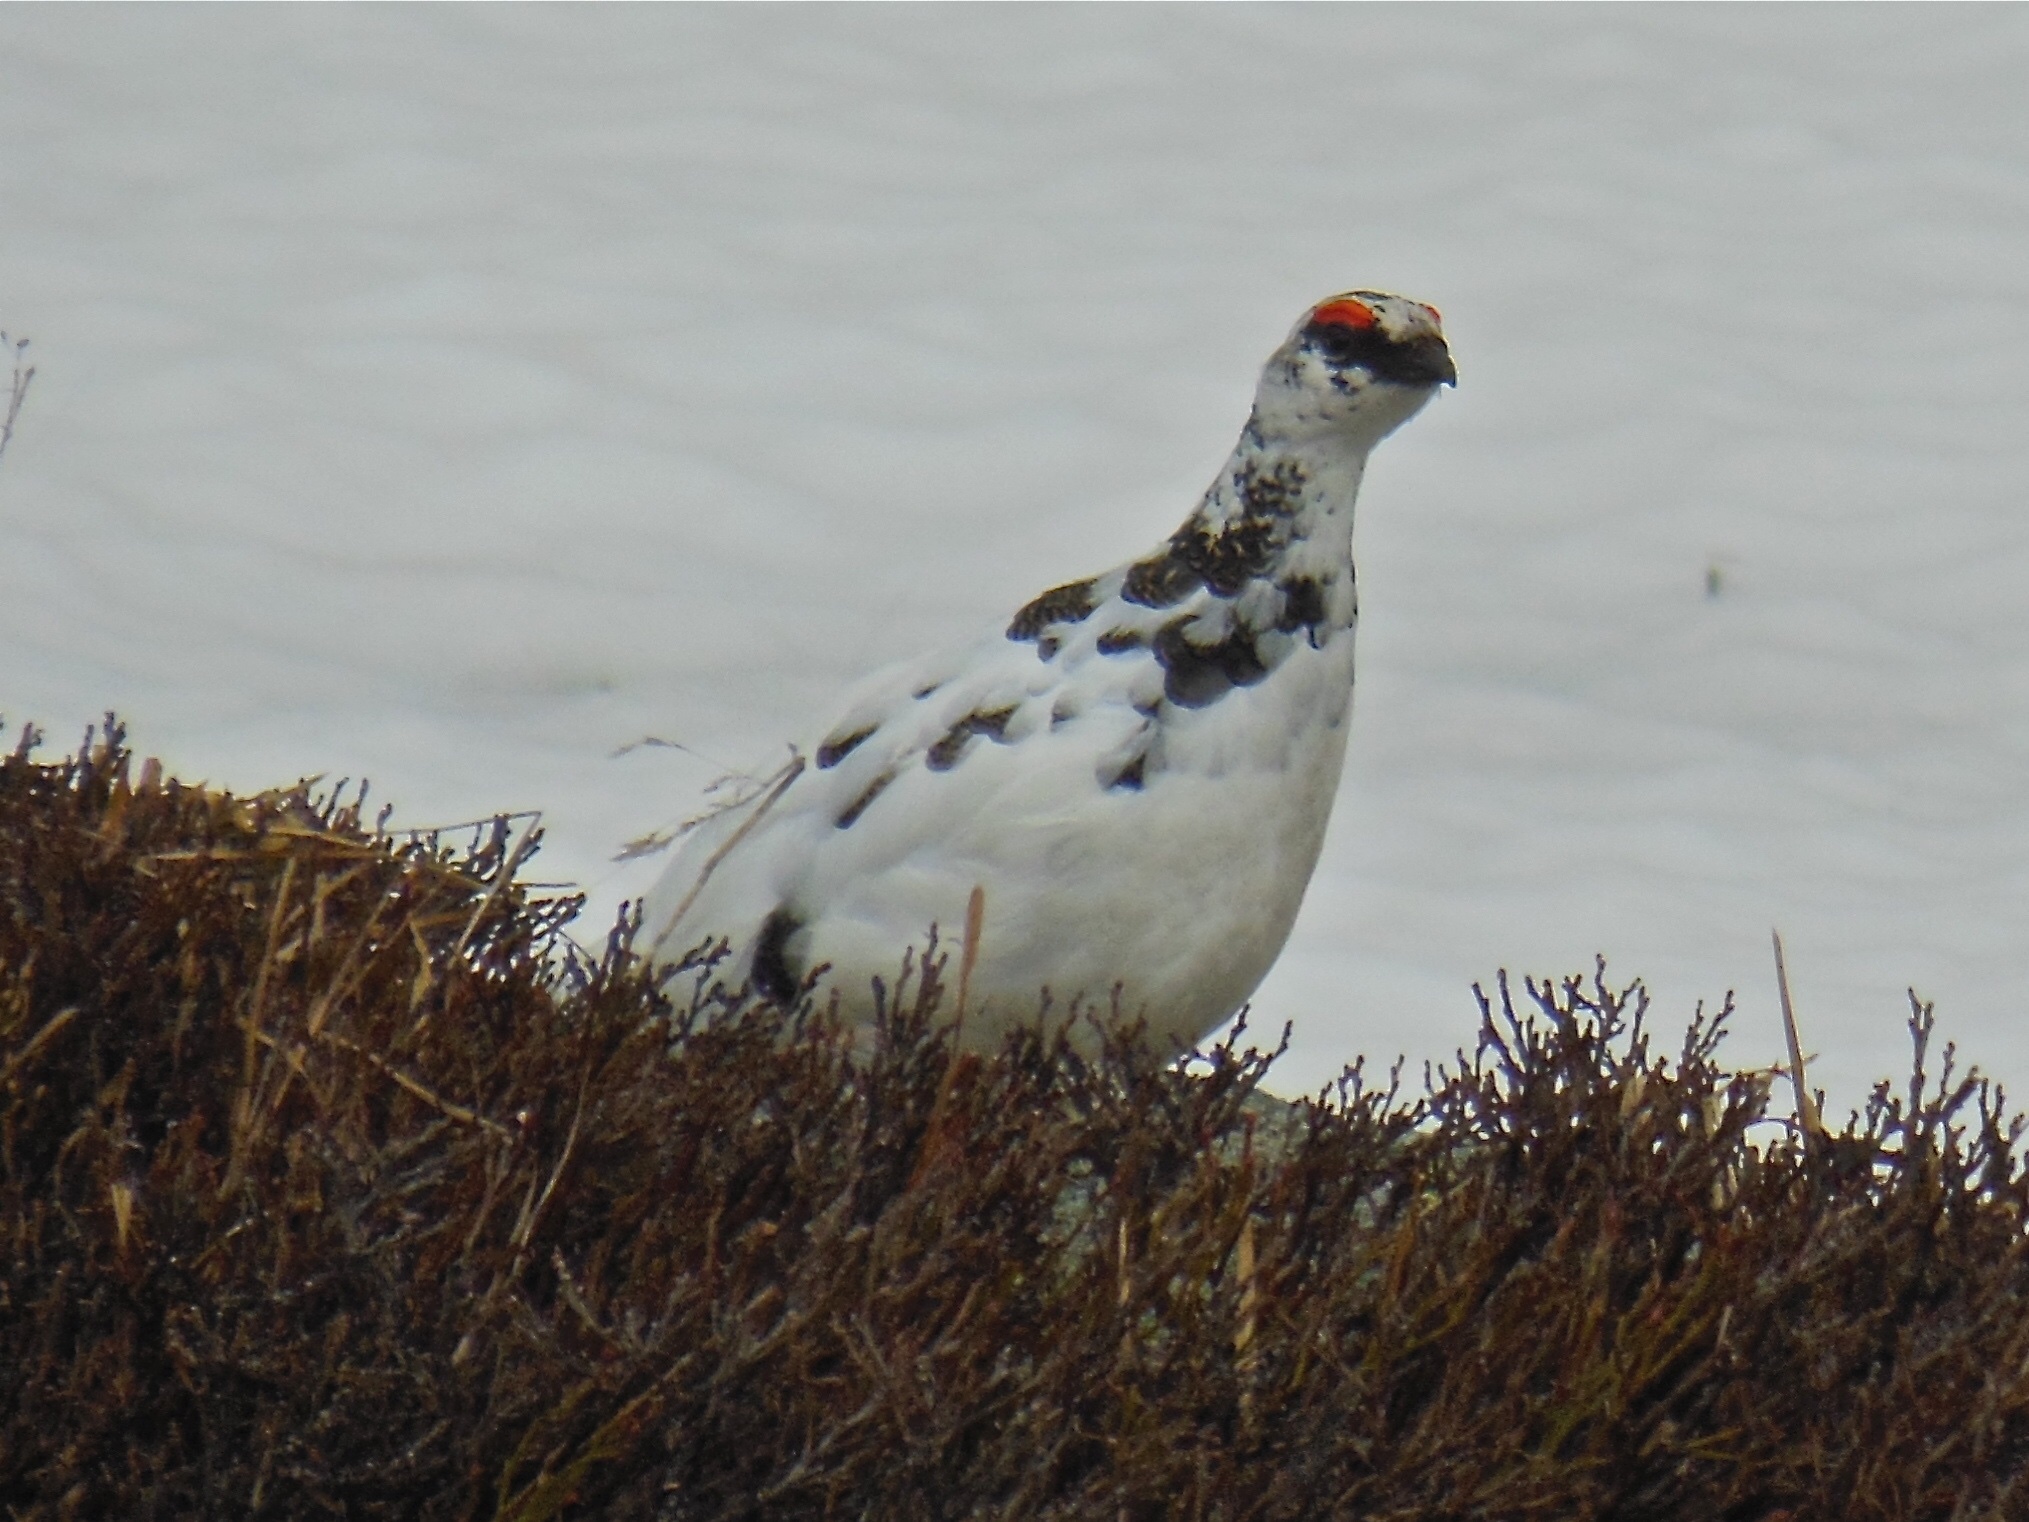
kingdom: Animalia
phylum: Chordata
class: Aves
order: Galliformes
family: Phasianidae
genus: Lagopus
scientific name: Lagopus muta
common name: Rock ptarmigan
